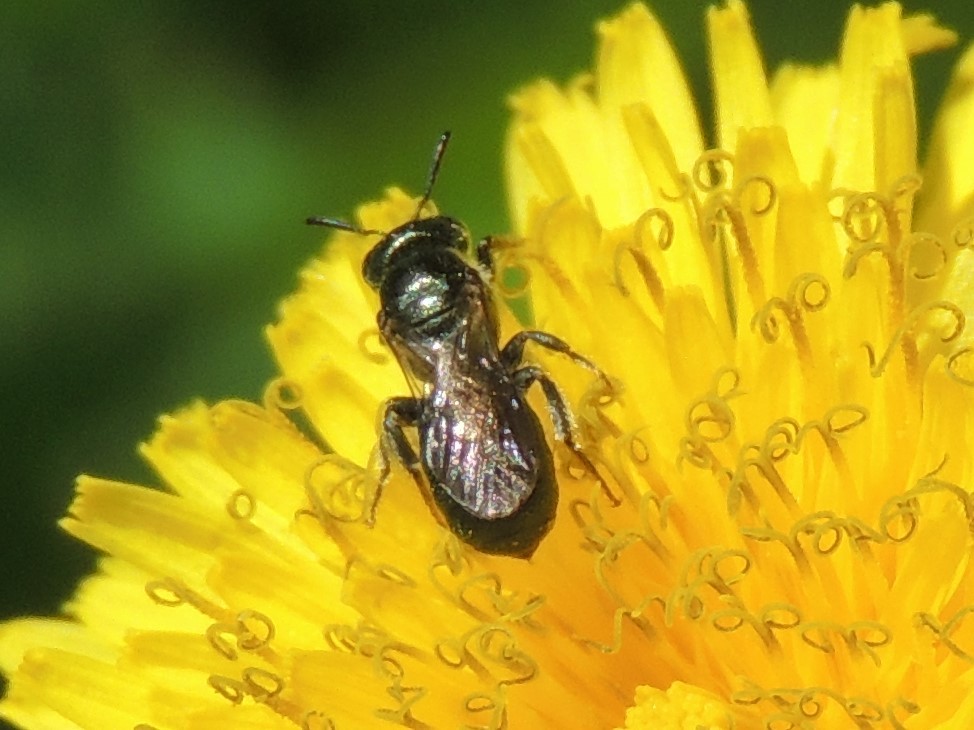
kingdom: Animalia
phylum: Arthropoda
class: Insecta
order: Hymenoptera
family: Apidae
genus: Zadontomerus
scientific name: Zadontomerus
